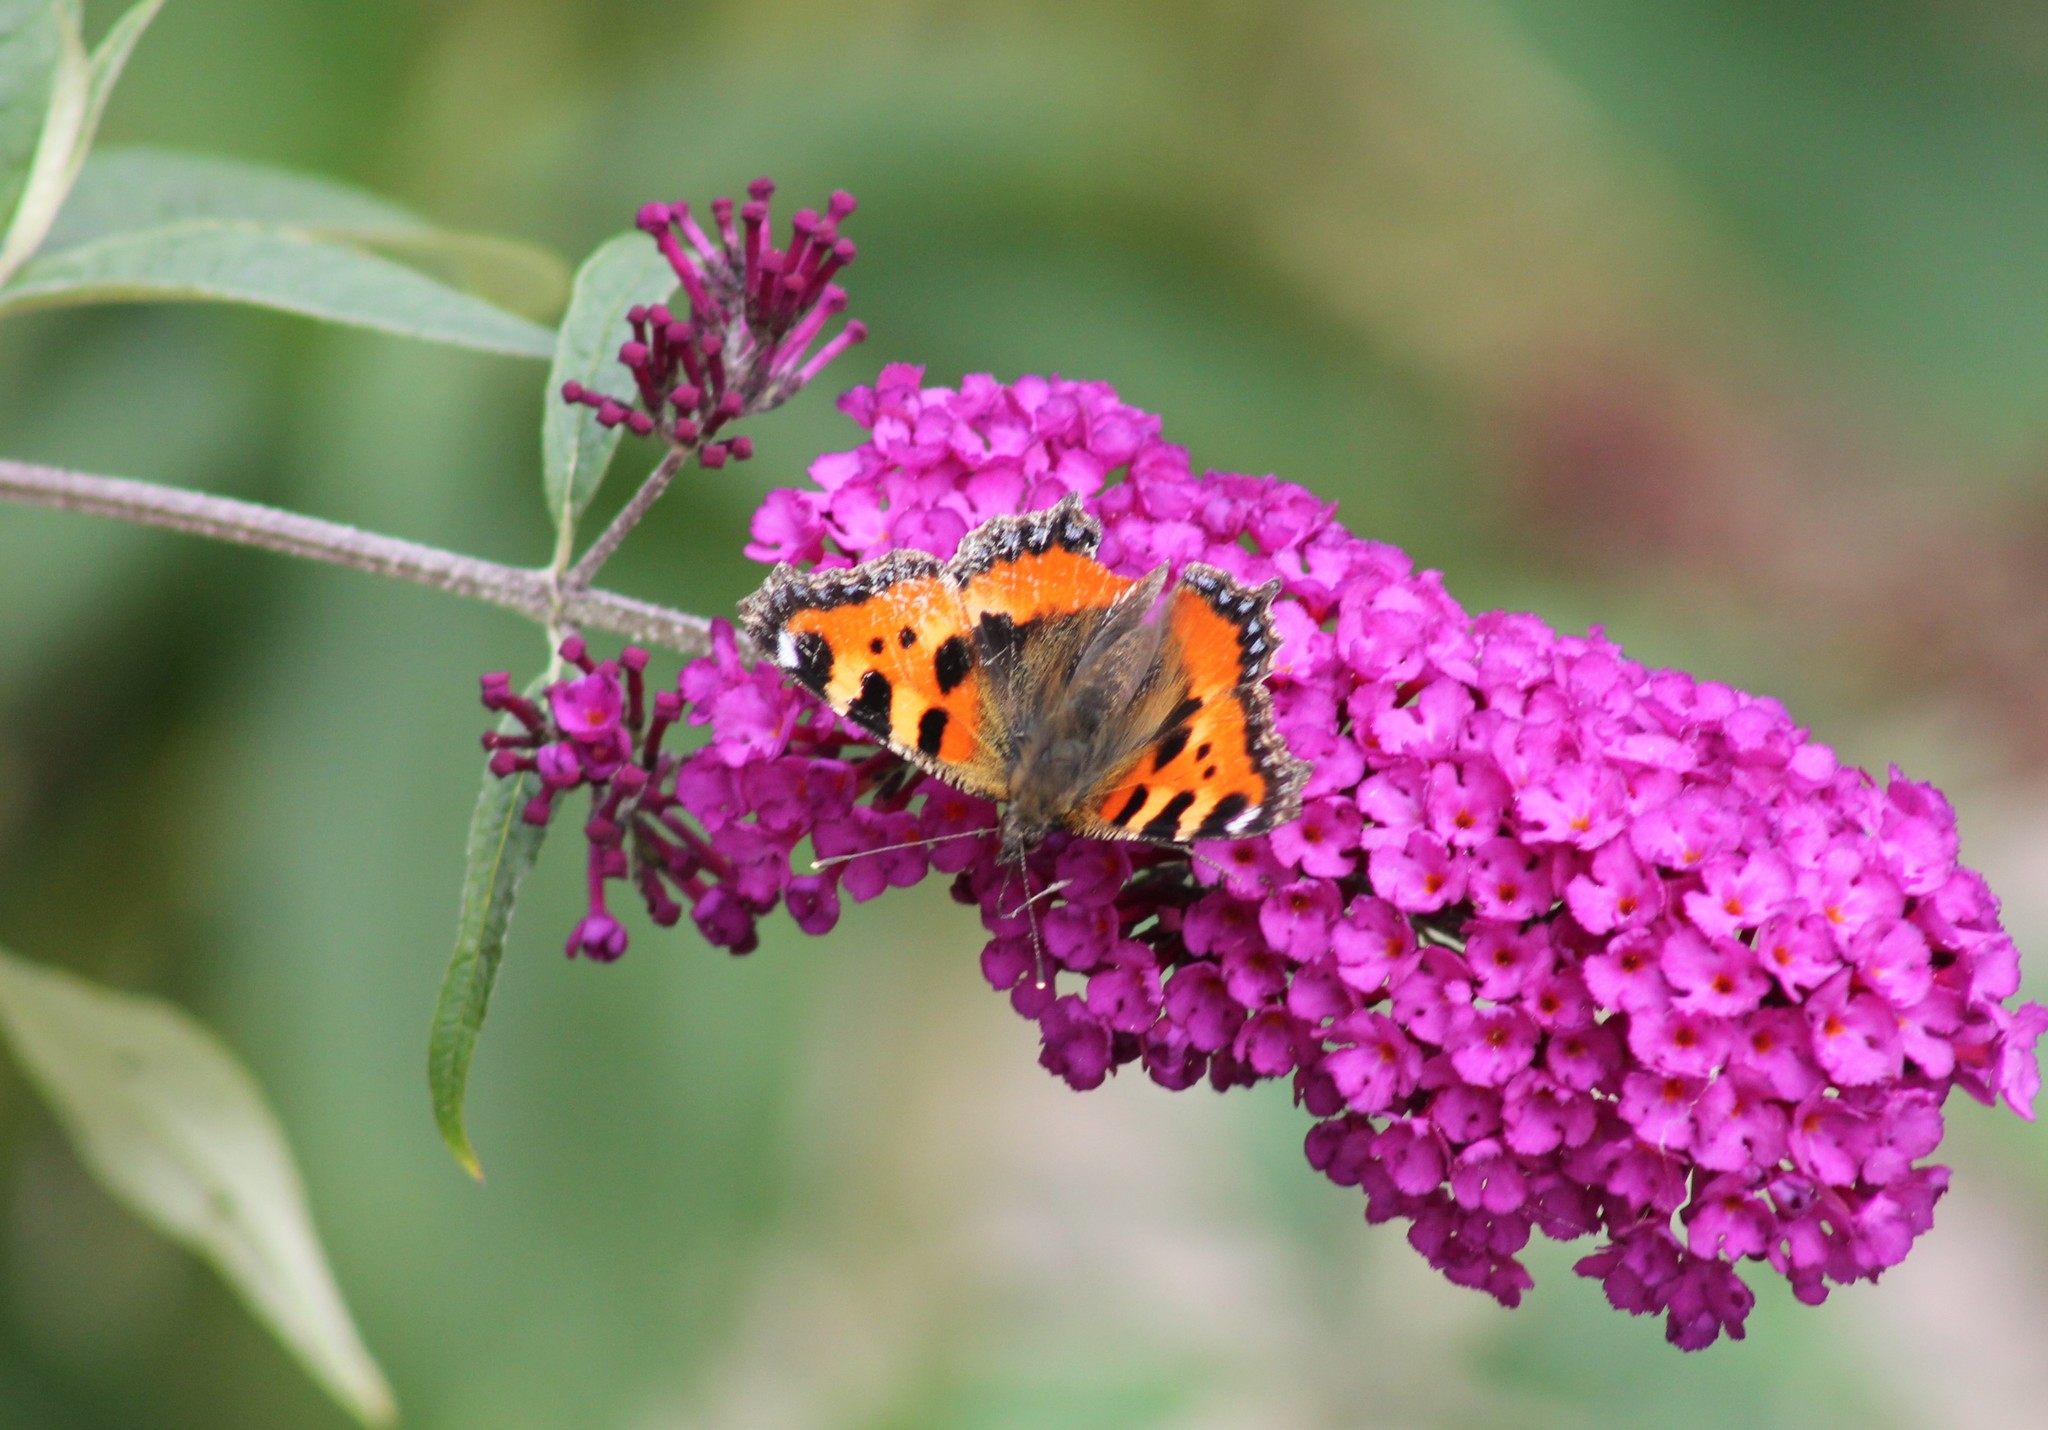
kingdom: Animalia
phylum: Arthropoda
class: Insecta
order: Lepidoptera
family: Nymphalidae
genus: Aglais
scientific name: Aglais urticae
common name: Small tortoiseshell
